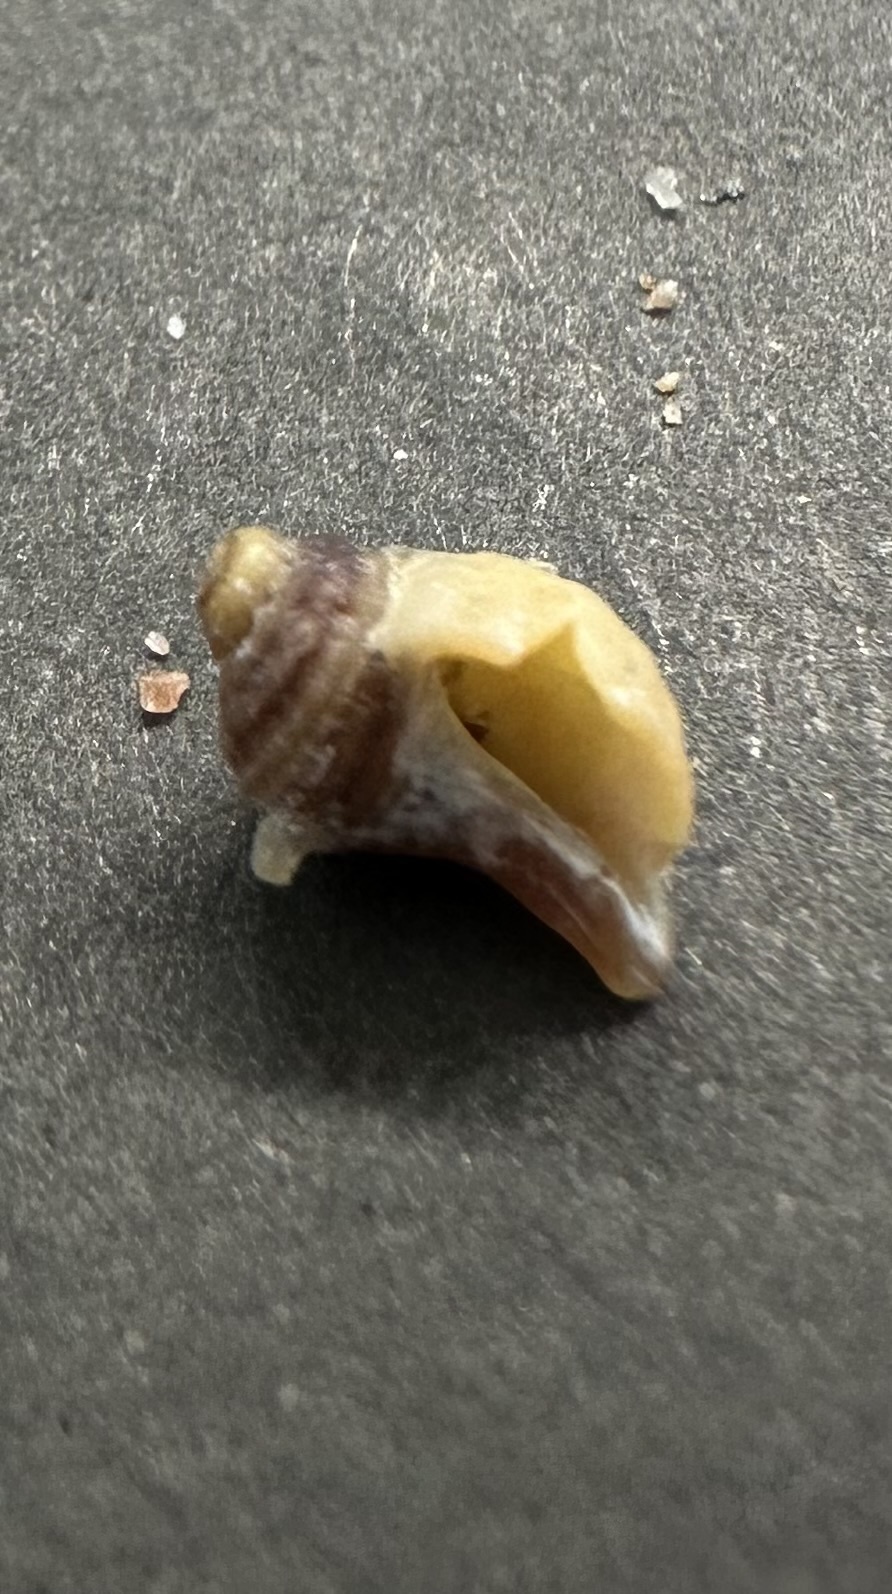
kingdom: Animalia
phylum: Mollusca
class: Gastropoda
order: Neogastropoda
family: Muricidae
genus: Nucella
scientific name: Nucella lapillus
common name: Dog whelk
